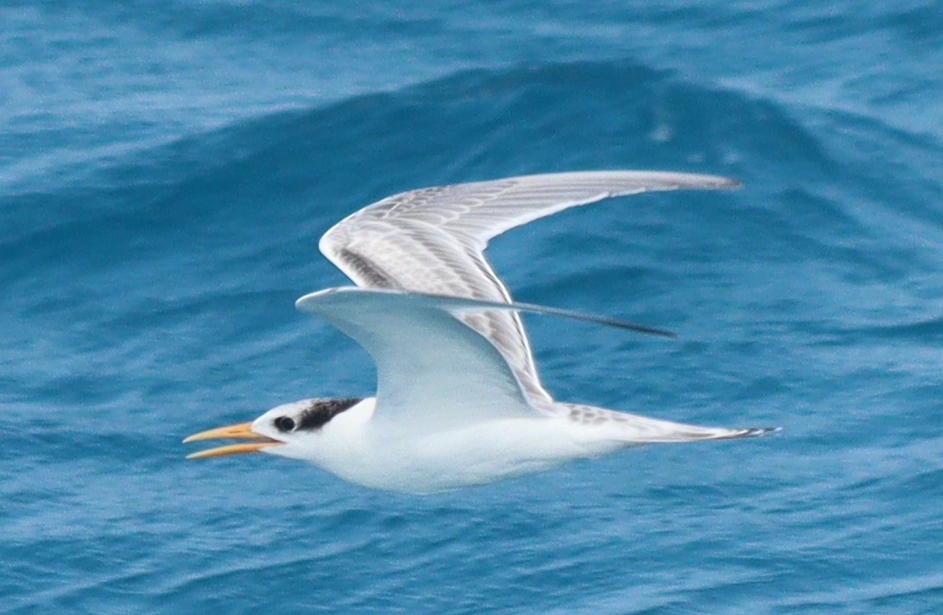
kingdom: Animalia
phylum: Chordata
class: Aves
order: Charadriiformes
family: Laridae
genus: Thalasseus
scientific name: Thalasseus bengalensis
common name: Lesser crested tern
